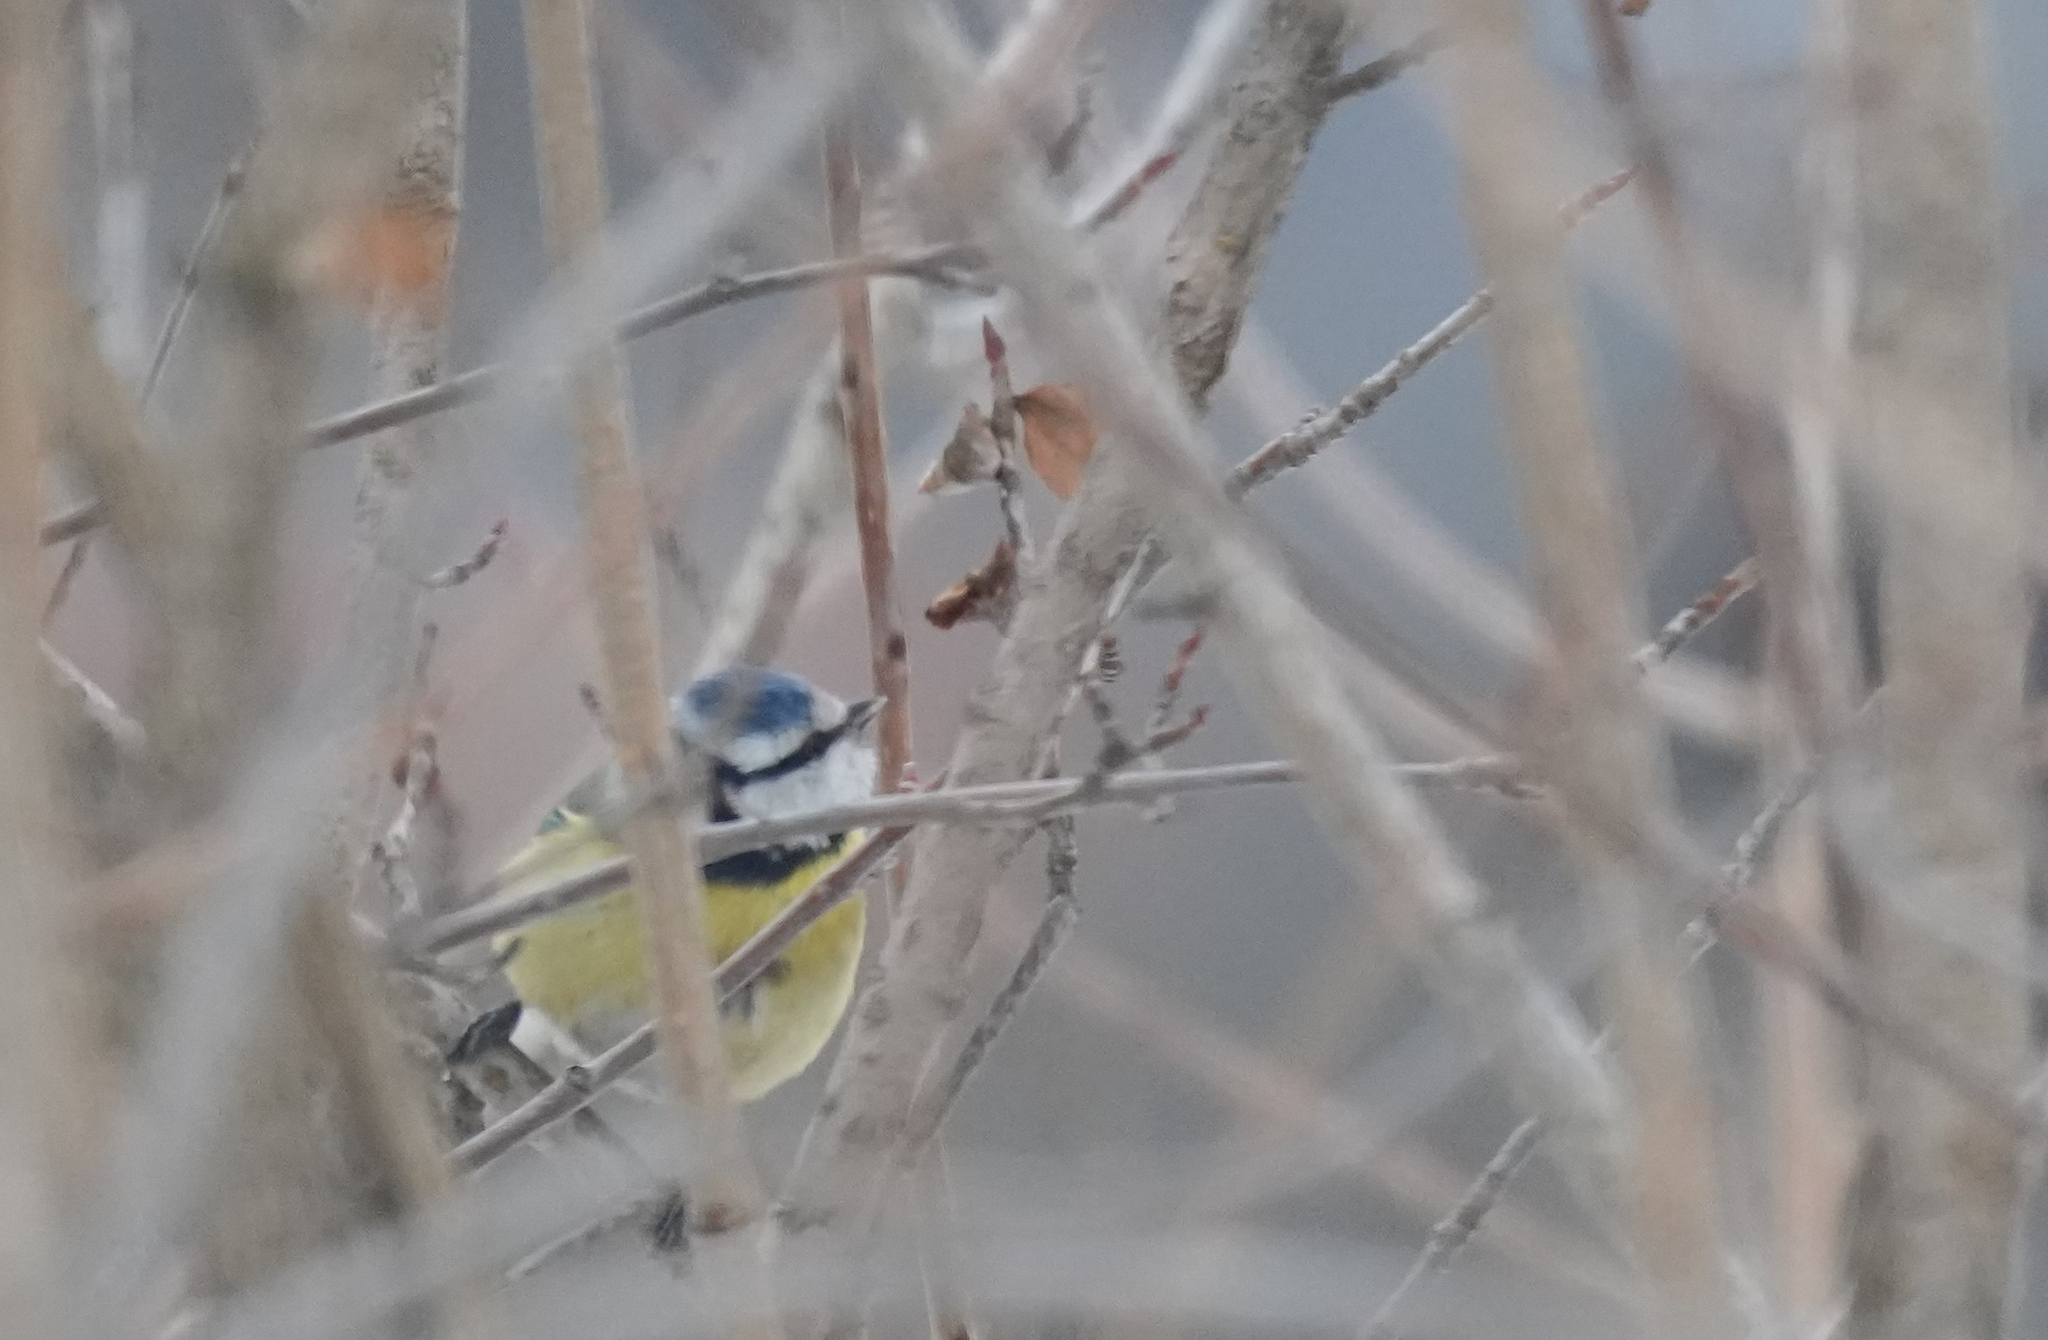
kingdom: Animalia
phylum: Chordata
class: Aves
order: Passeriformes
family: Paridae
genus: Cyanistes
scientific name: Cyanistes caeruleus
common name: Eurasian blue tit
